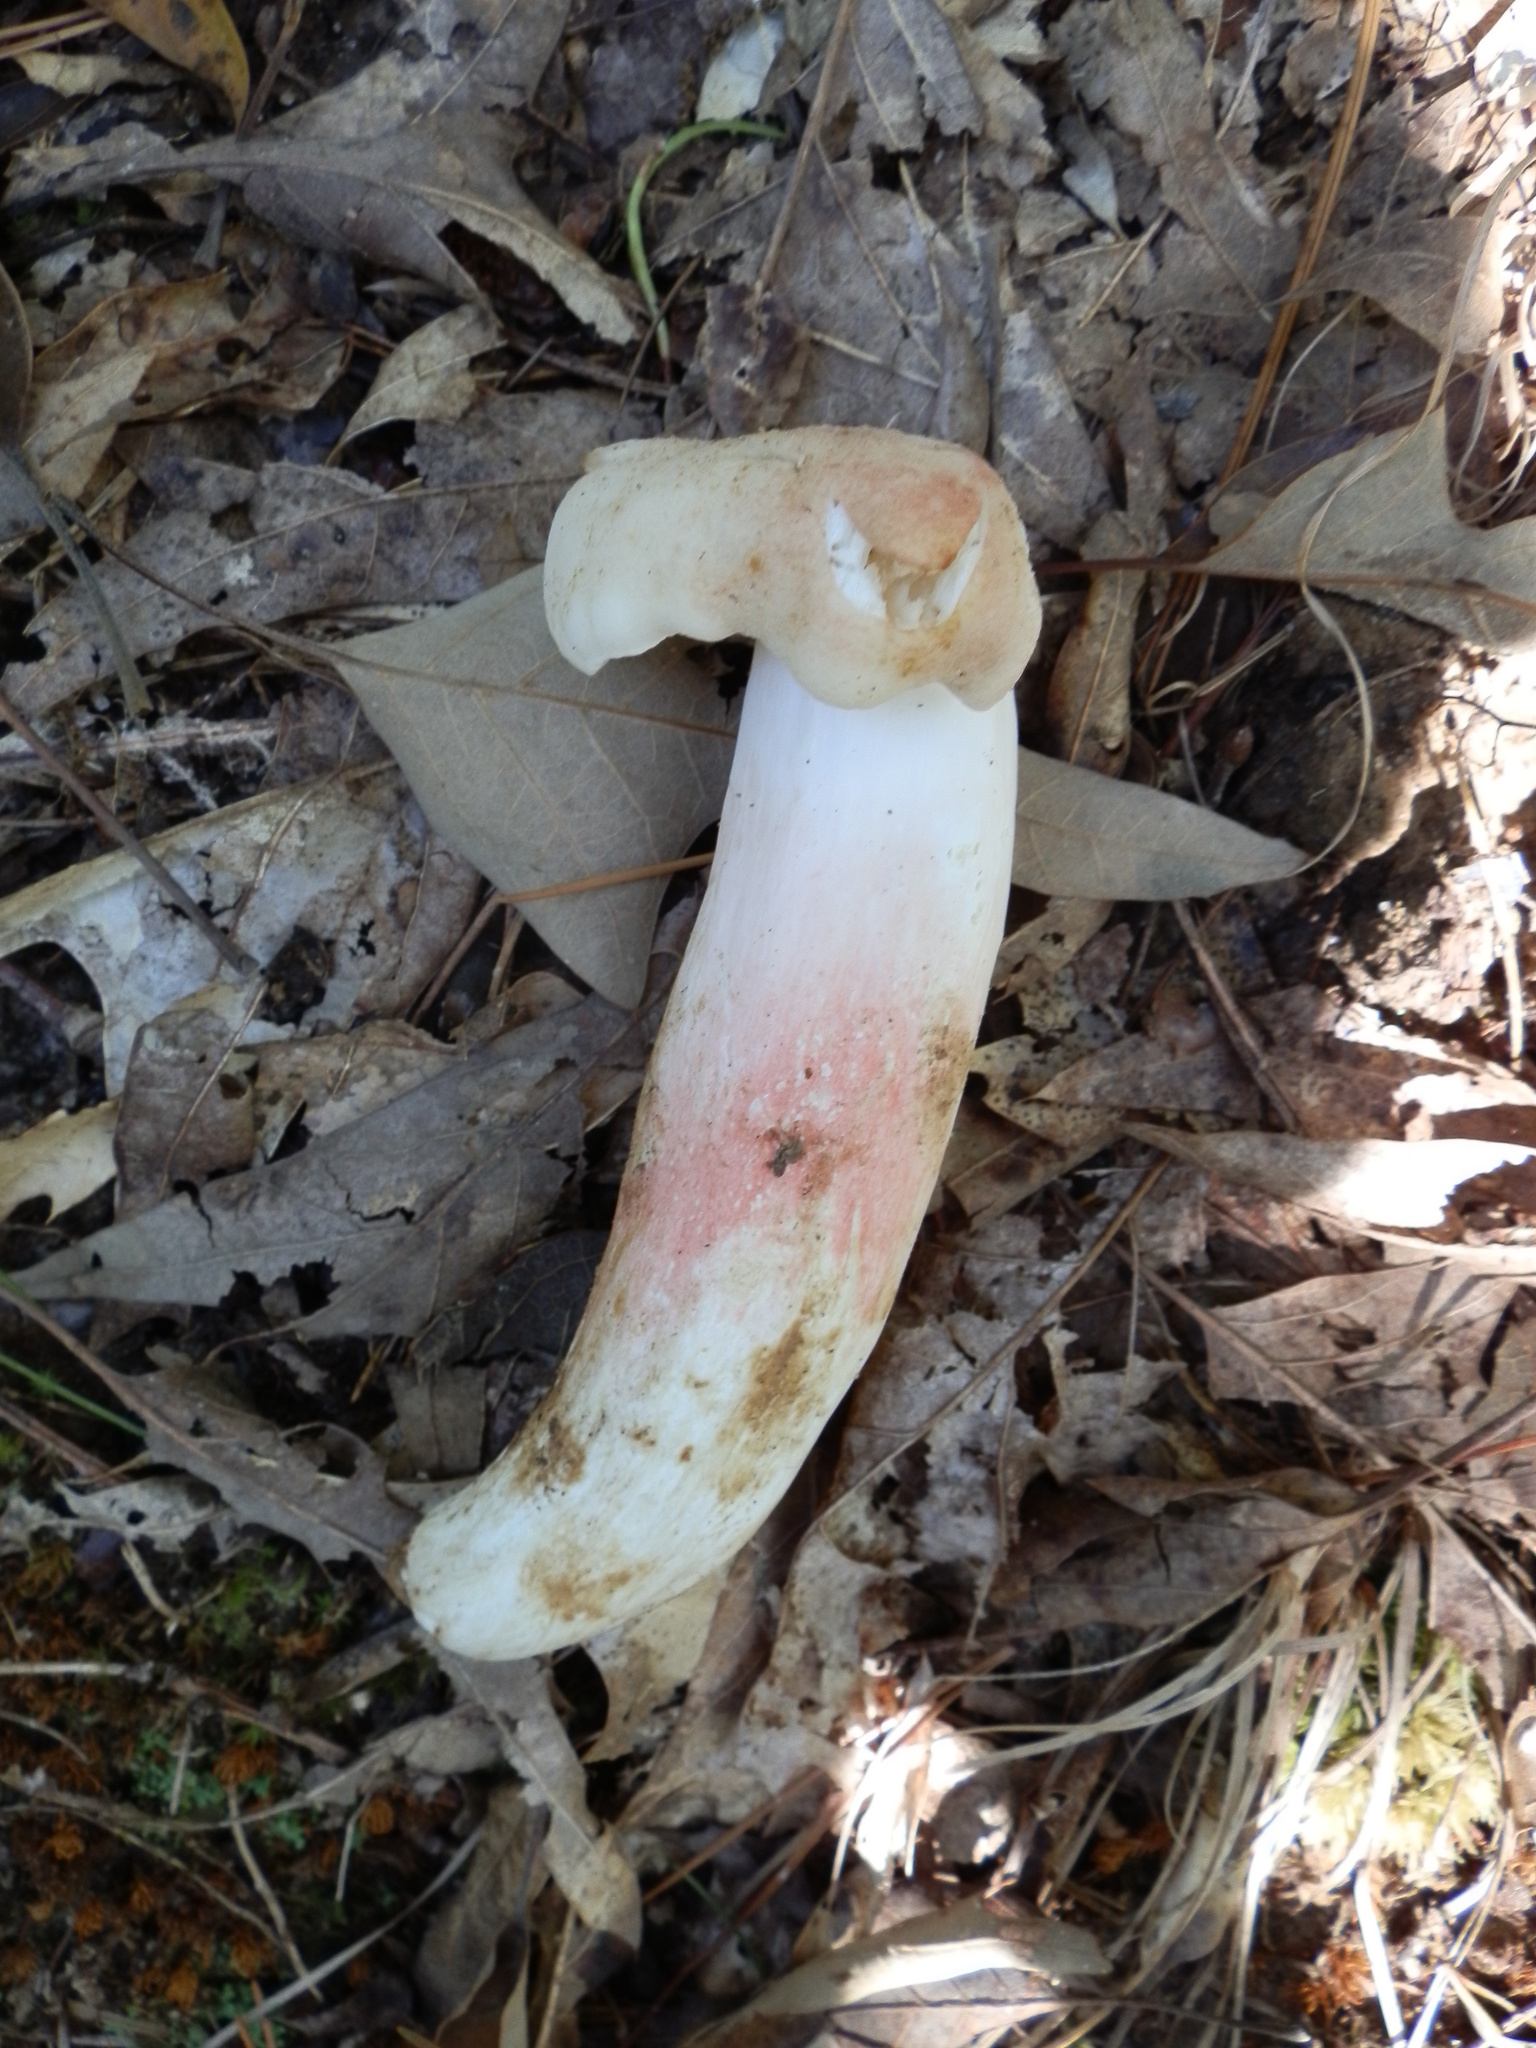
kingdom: Fungi
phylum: Basidiomycota
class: Agaricomycetes
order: Russulales
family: Russulaceae
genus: Russula
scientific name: Russula flavisiccans
